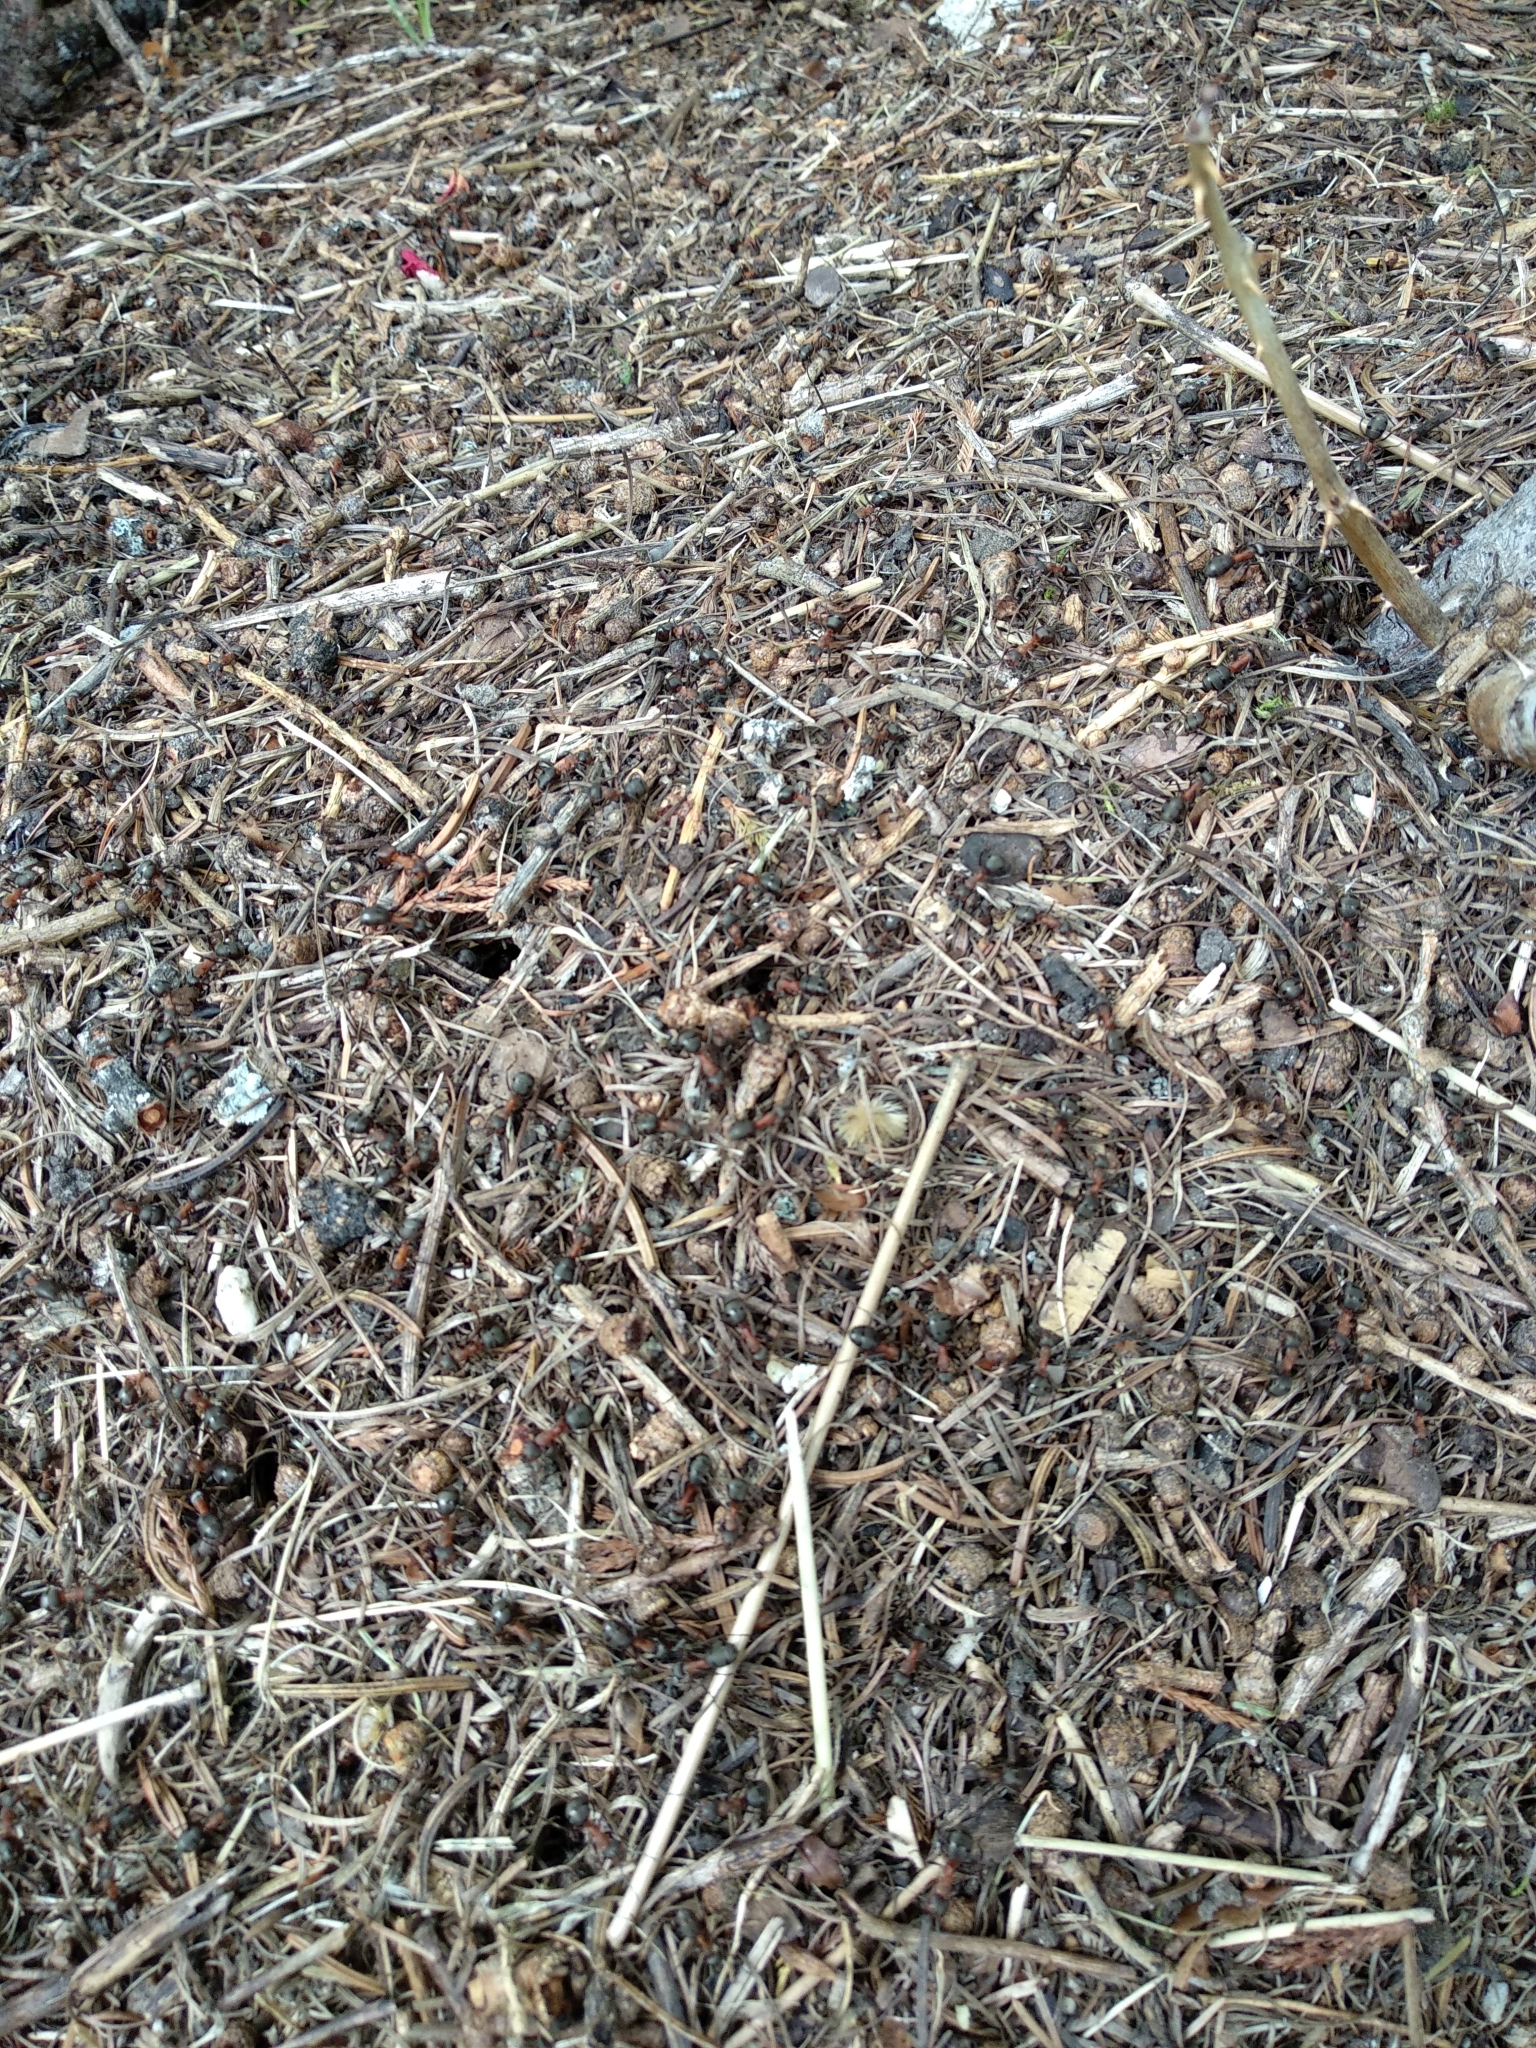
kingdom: Animalia
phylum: Arthropoda
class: Insecta
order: Hymenoptera
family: Formicidae
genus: Formica
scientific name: Formica rufa
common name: Red wood ant
